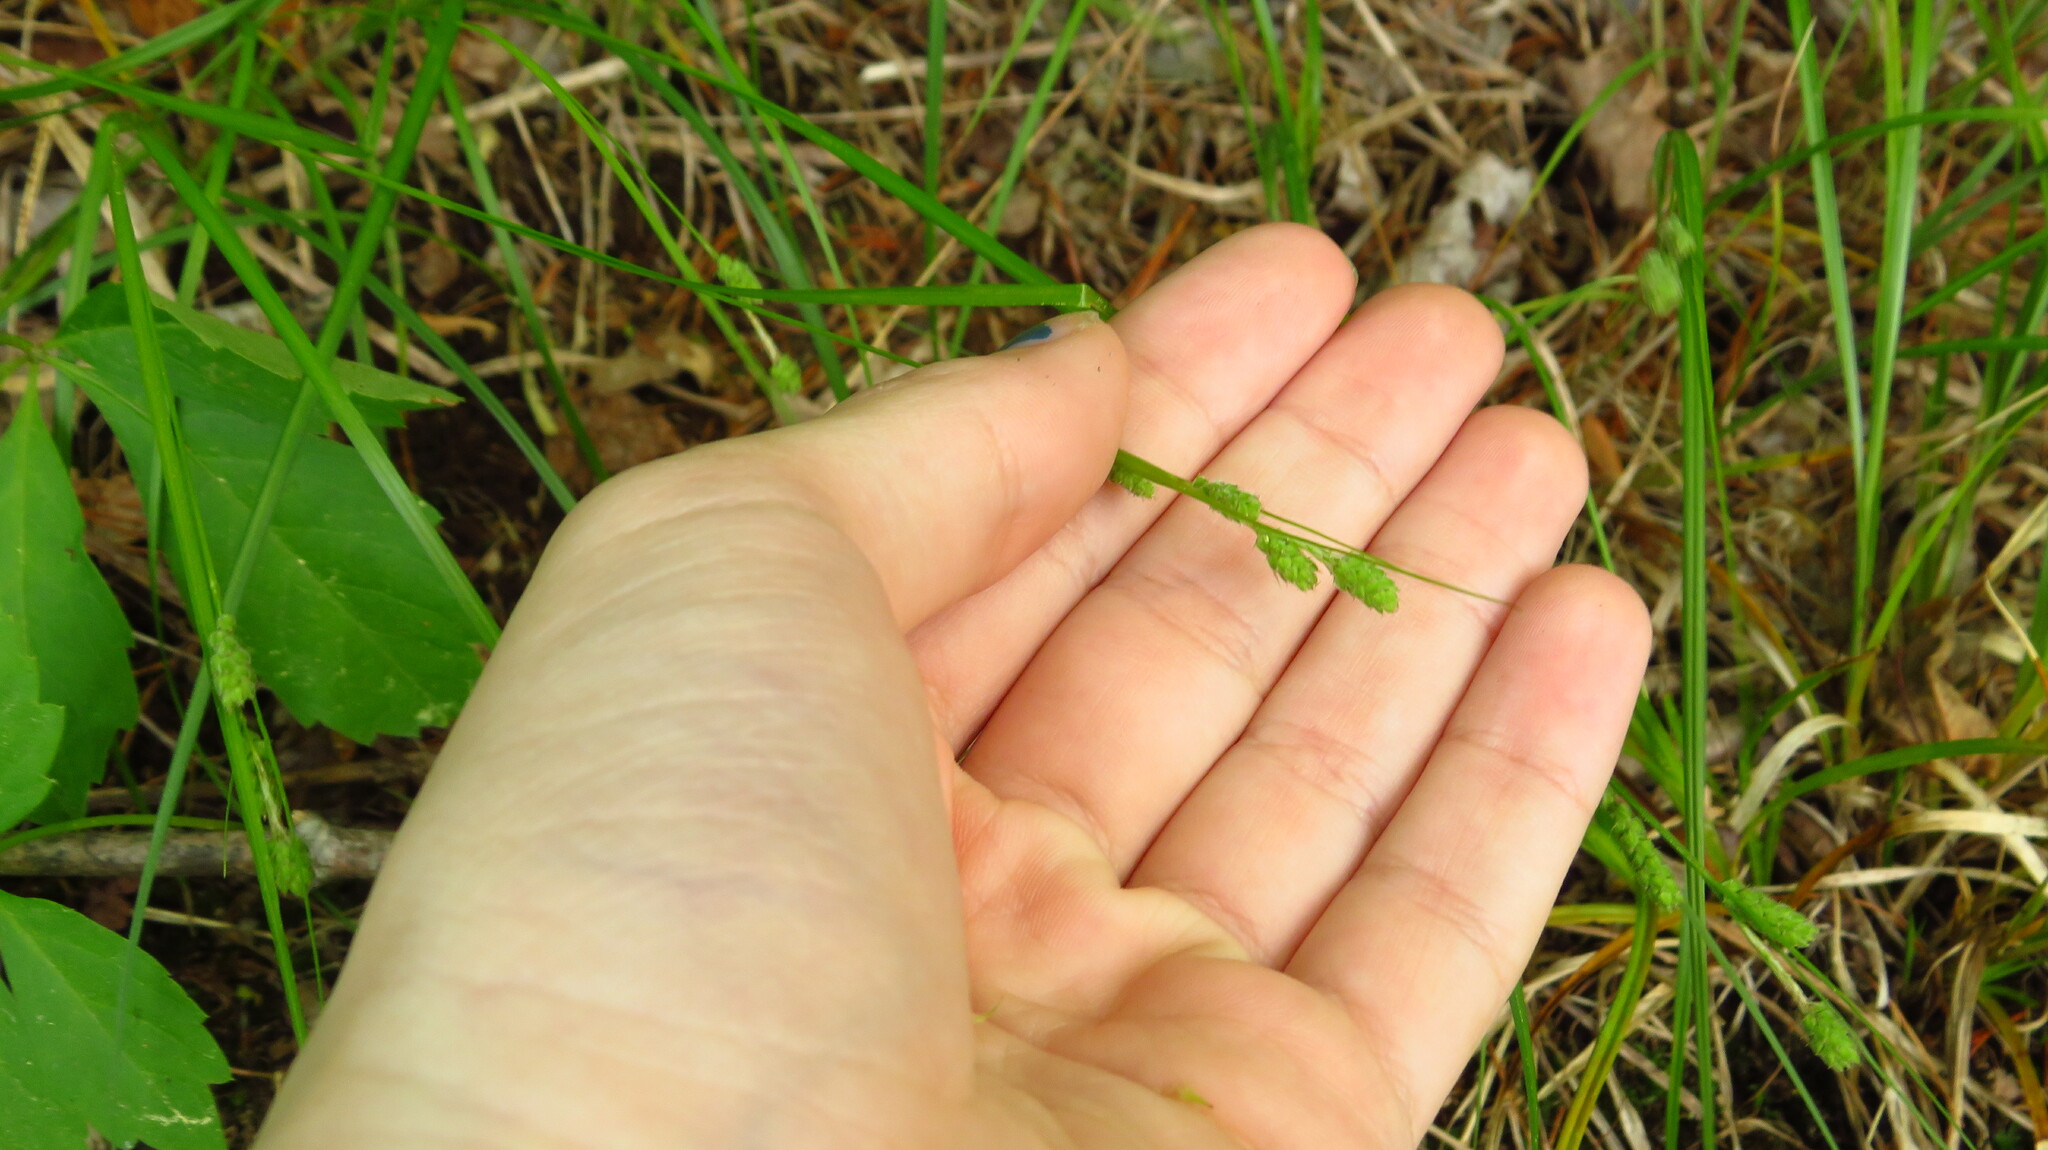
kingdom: Plantae
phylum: Tracheophyta
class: Liliopsida
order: Poales
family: Cyperaceae
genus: Carex
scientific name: Carex swanii
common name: Downy green sedge
